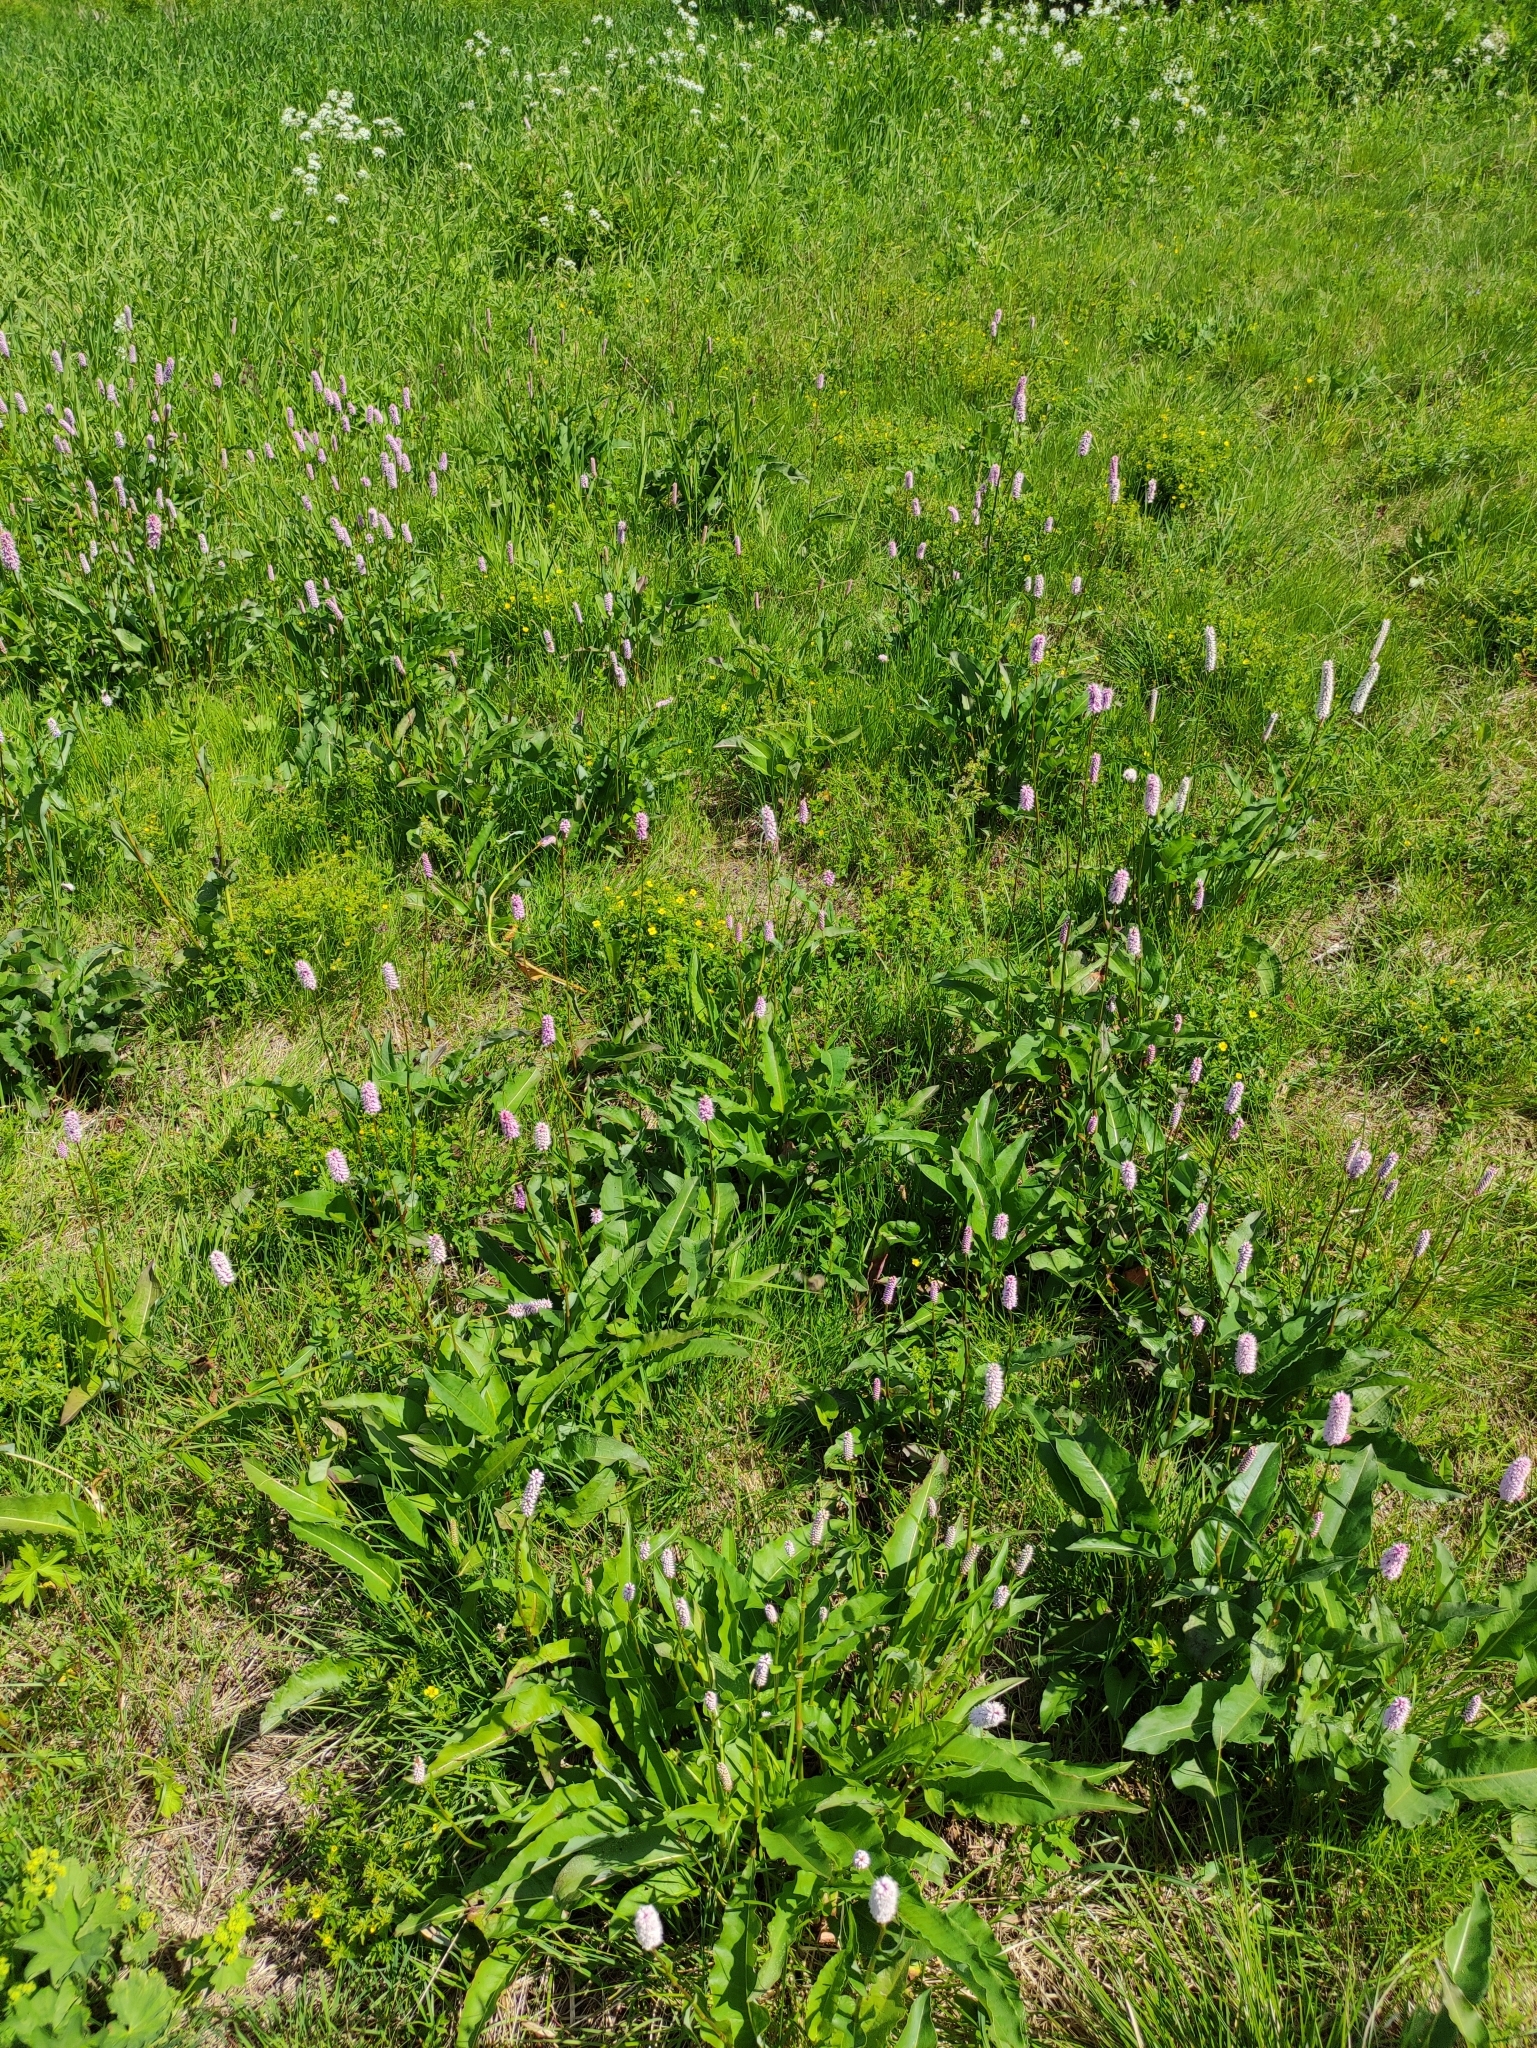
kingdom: Plantae
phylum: Tracheophyta
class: Magnoliopsida
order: Caryophyllales
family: Polygonaceae
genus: Bistorta
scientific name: Bistorta officinalis
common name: Common bistort
